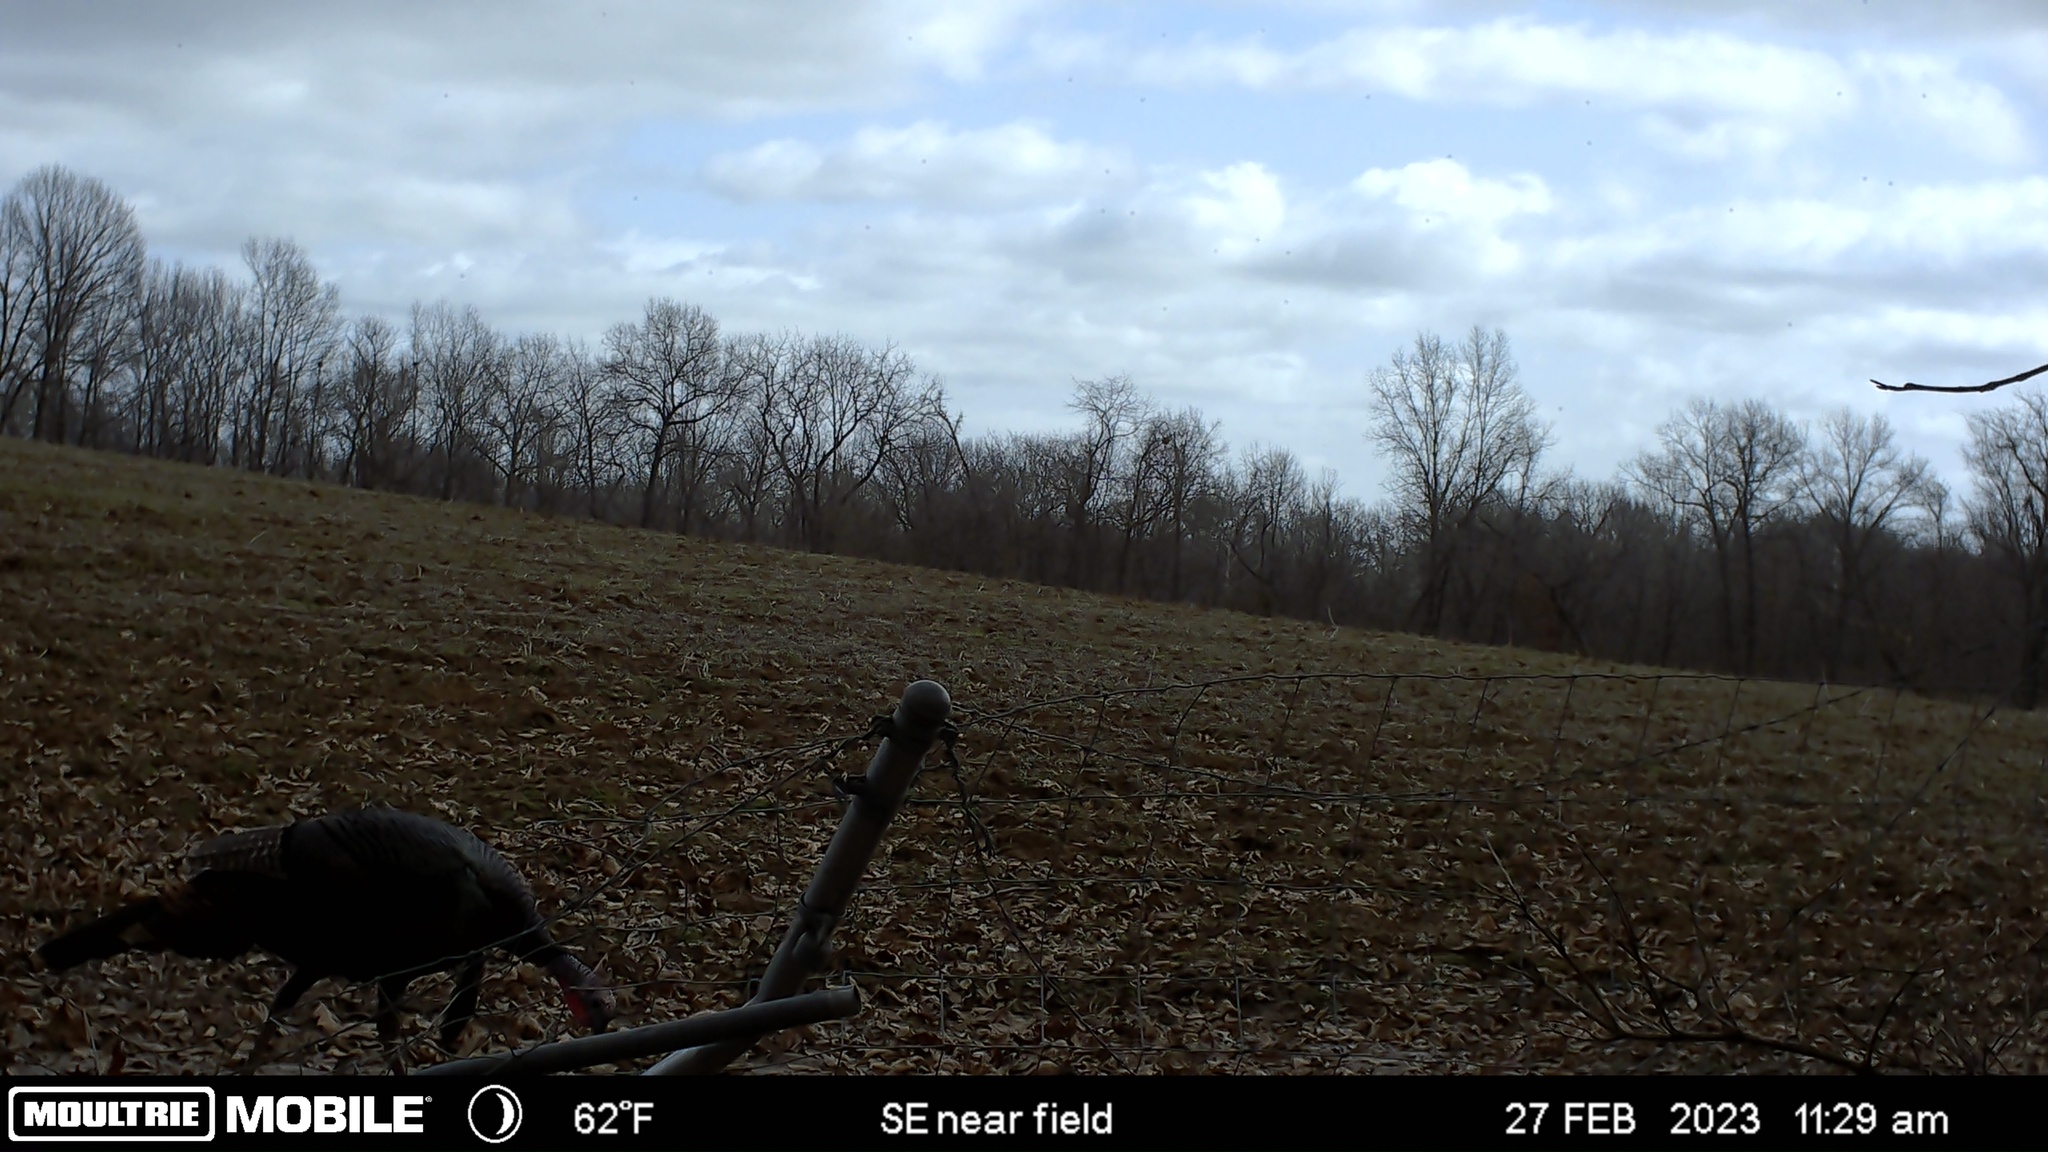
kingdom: Animalia
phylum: Chordata
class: Aves
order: Galliformes
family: Phasianidae
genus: Meleagris
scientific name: Meleagris gallopavo
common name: Wild turkey
